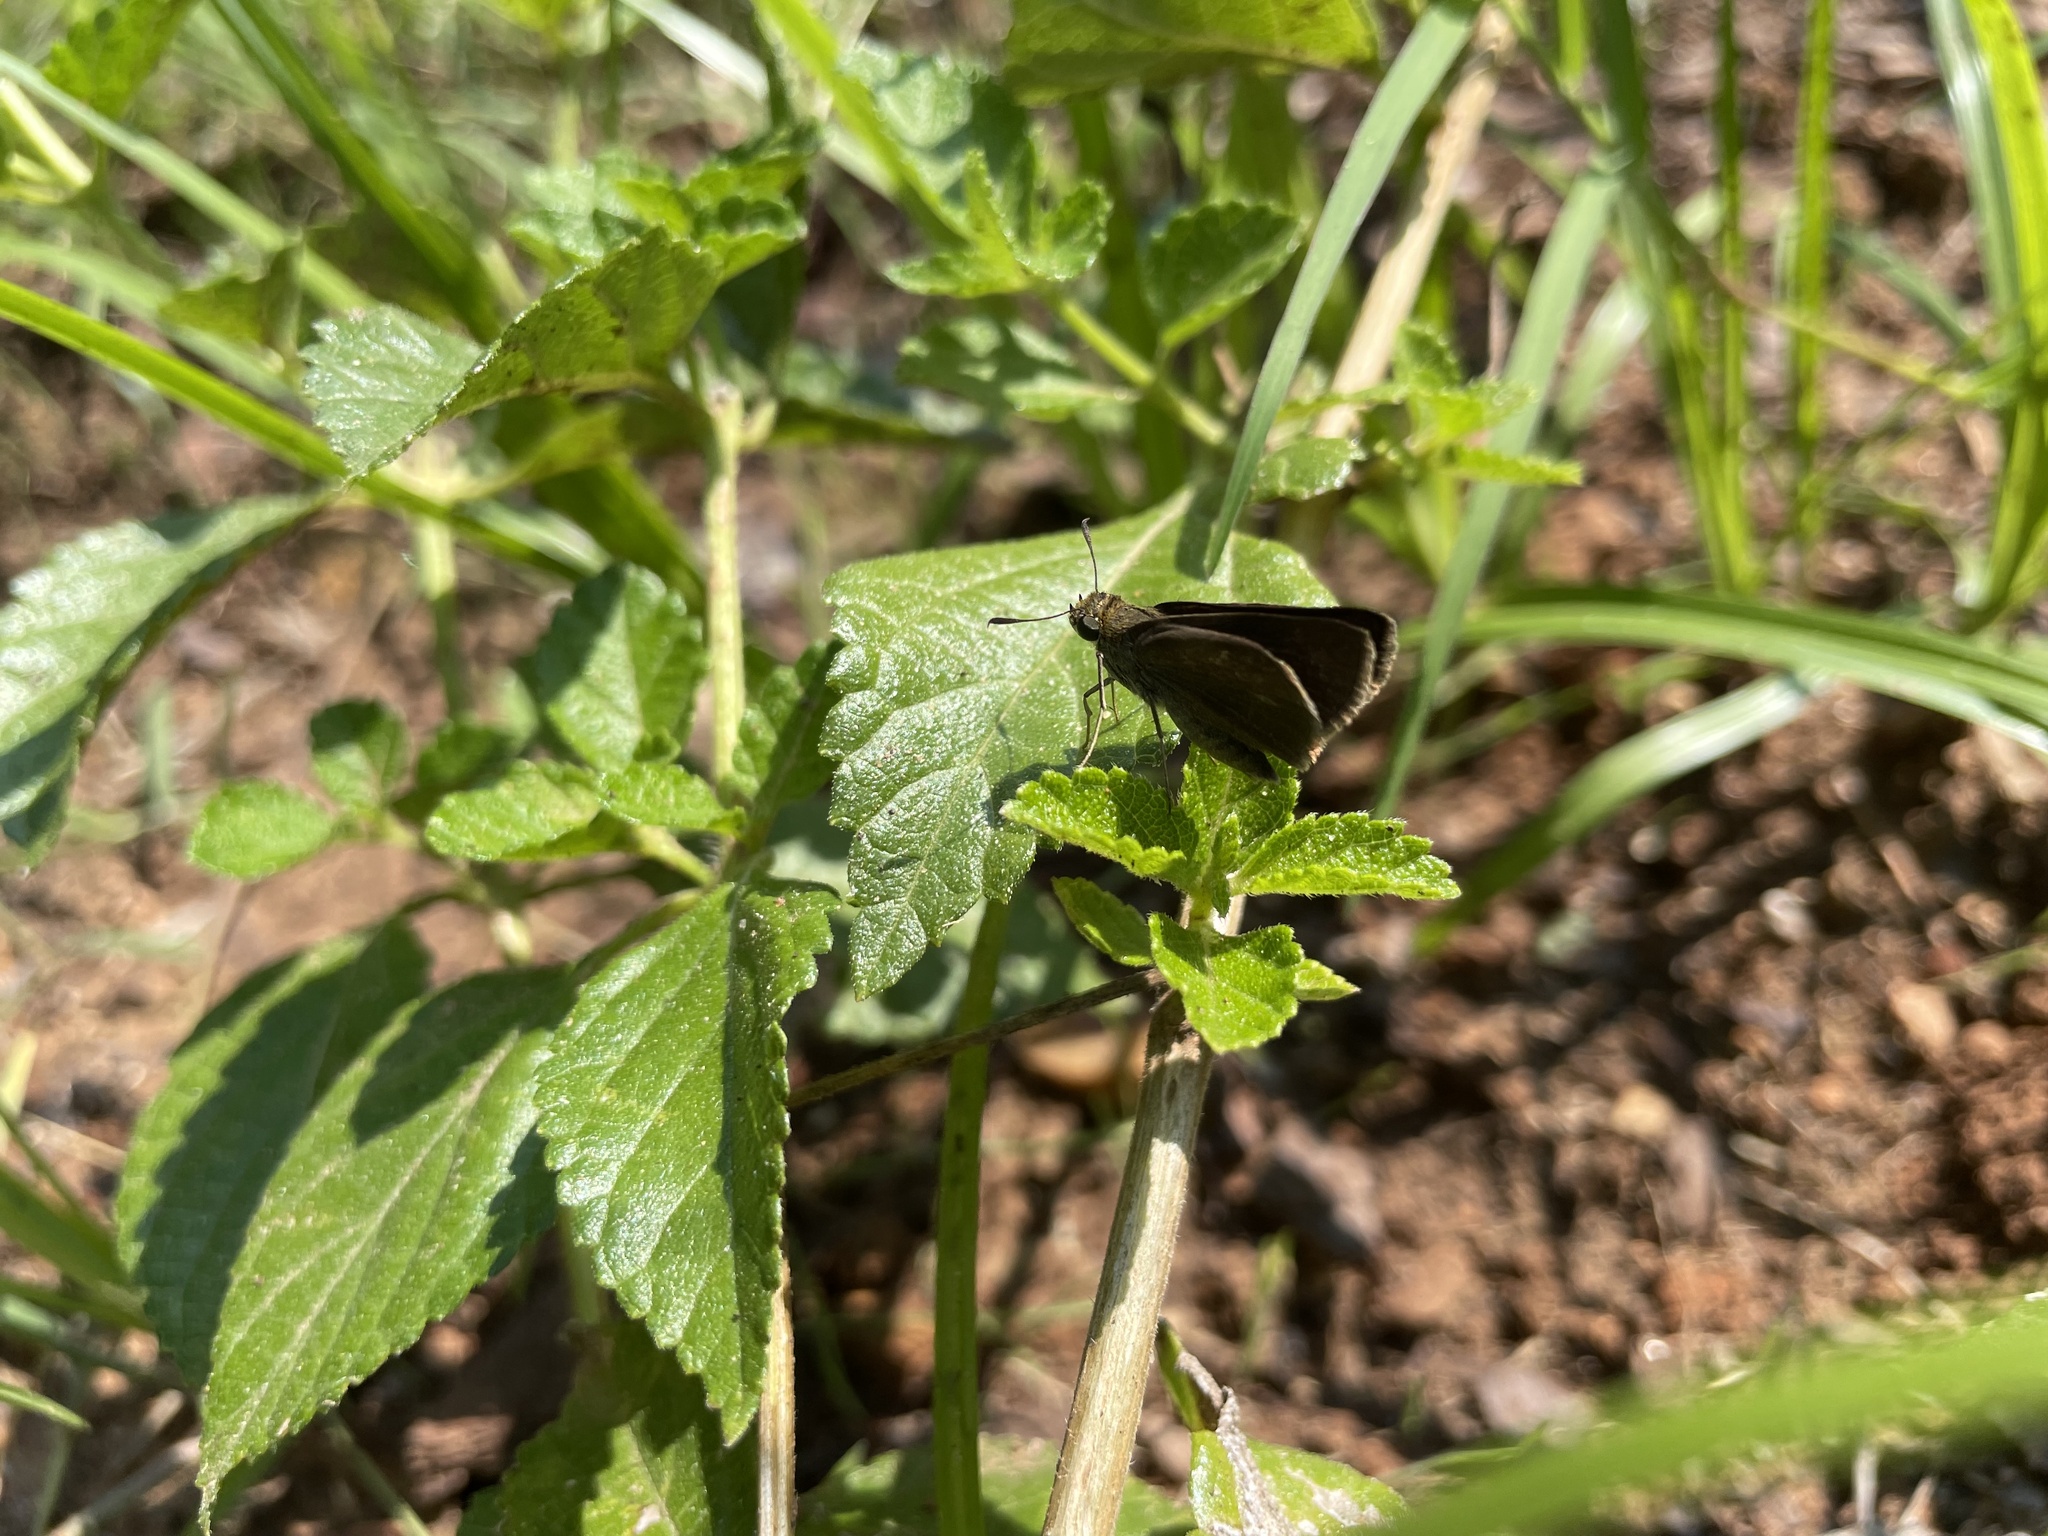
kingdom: Animalia
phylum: Arthropoda
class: Insecta
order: Lepidoptera
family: Hesperiidae
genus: Euphyes
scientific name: Euphyes vestris
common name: Dun skipper
